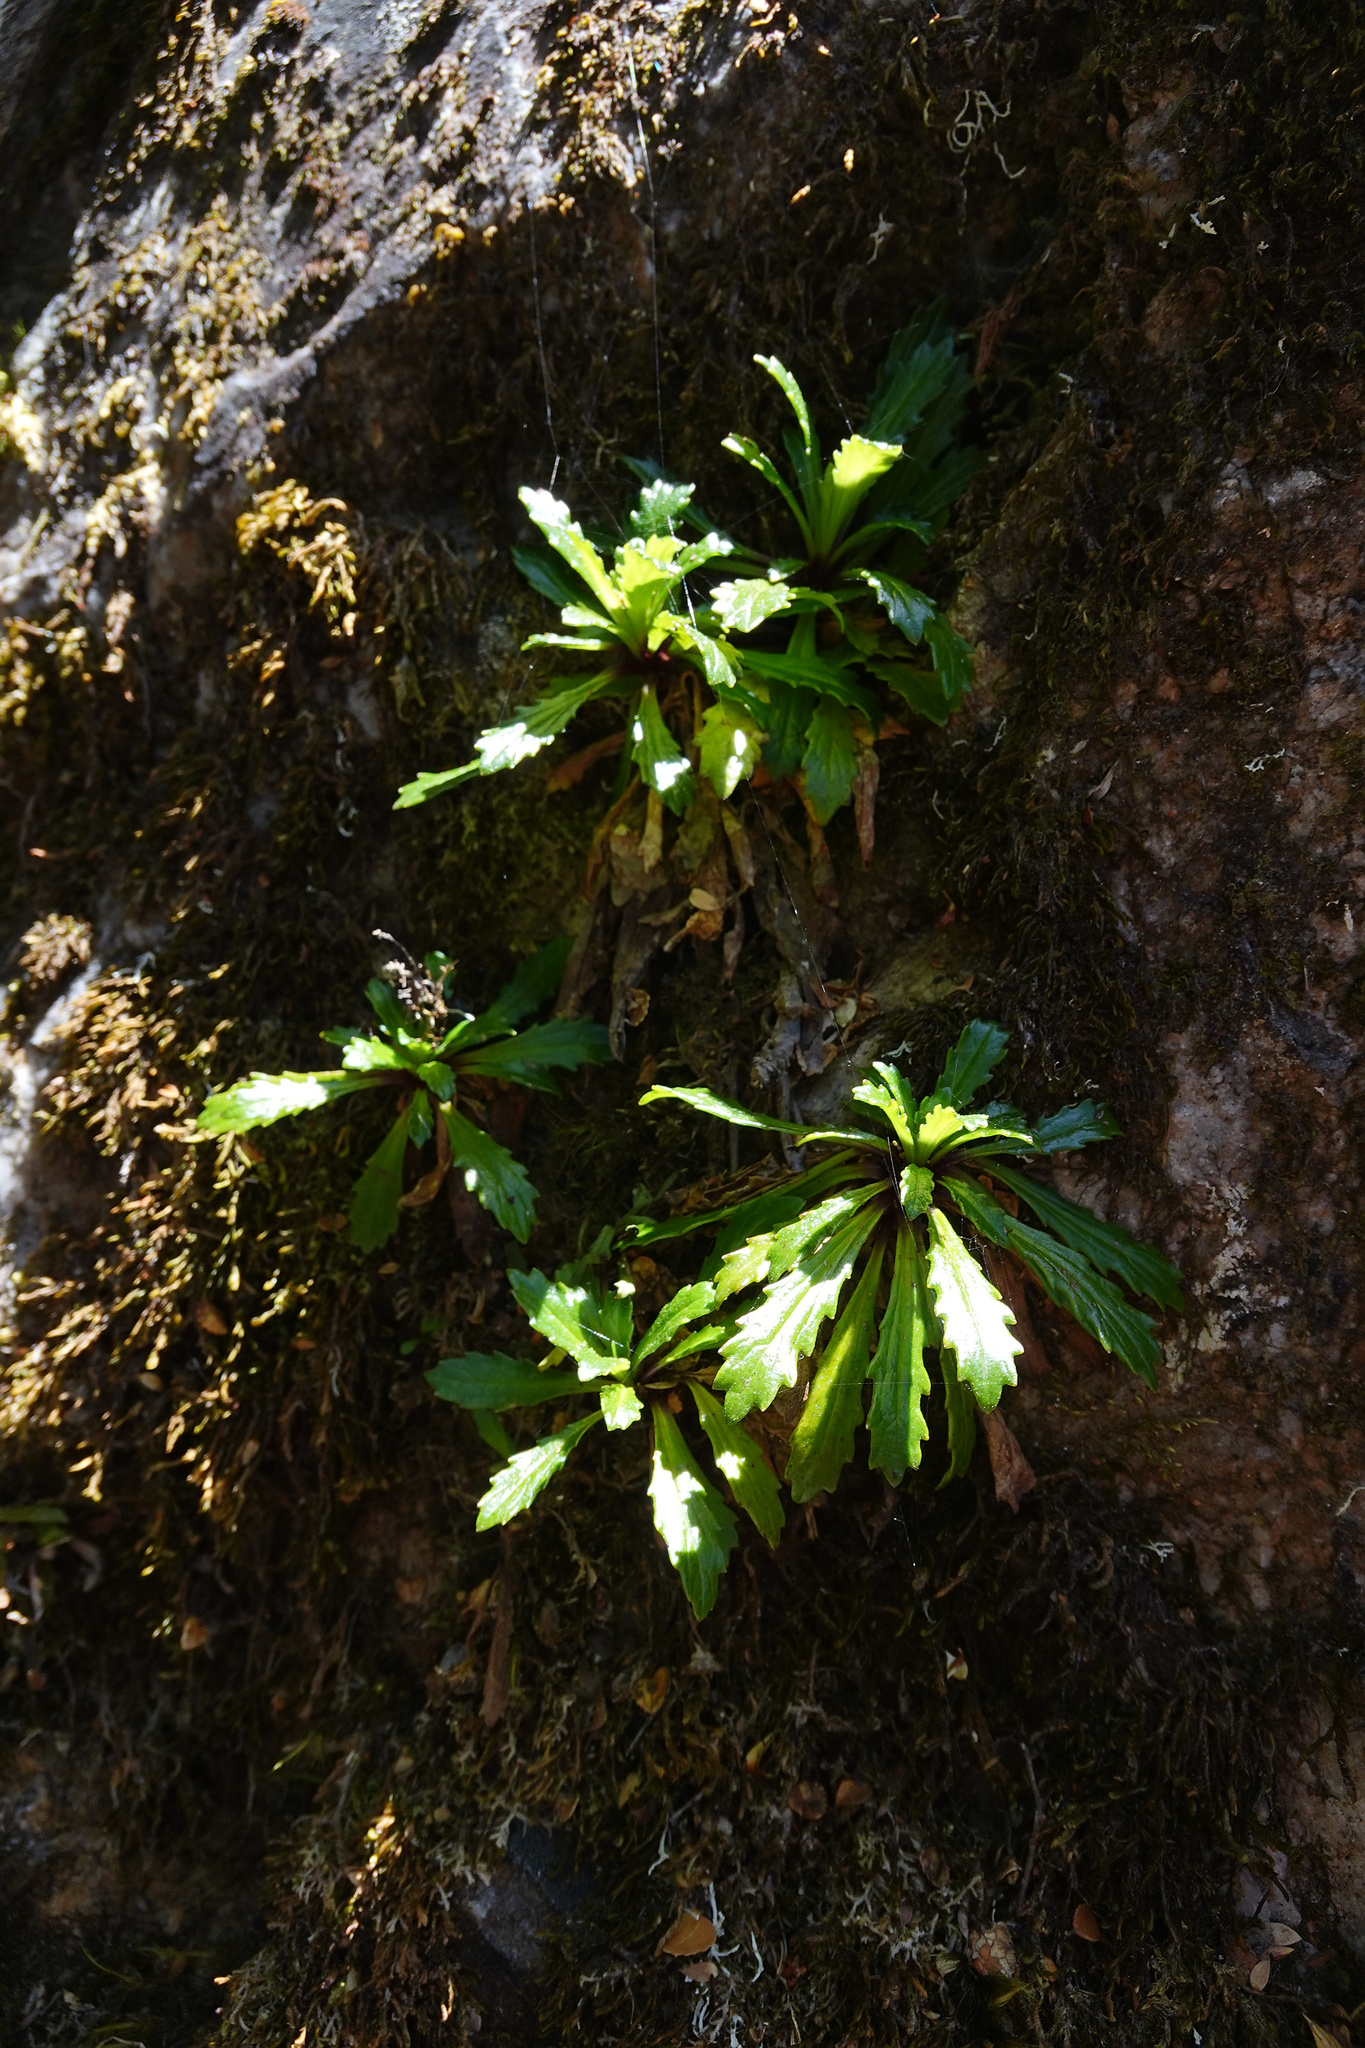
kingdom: Plantae
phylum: Tracheophyta
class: Magnoliopsida
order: Asterales
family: Asteraceae
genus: Scapisenecio
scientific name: Scapisenecio leptocarpus
